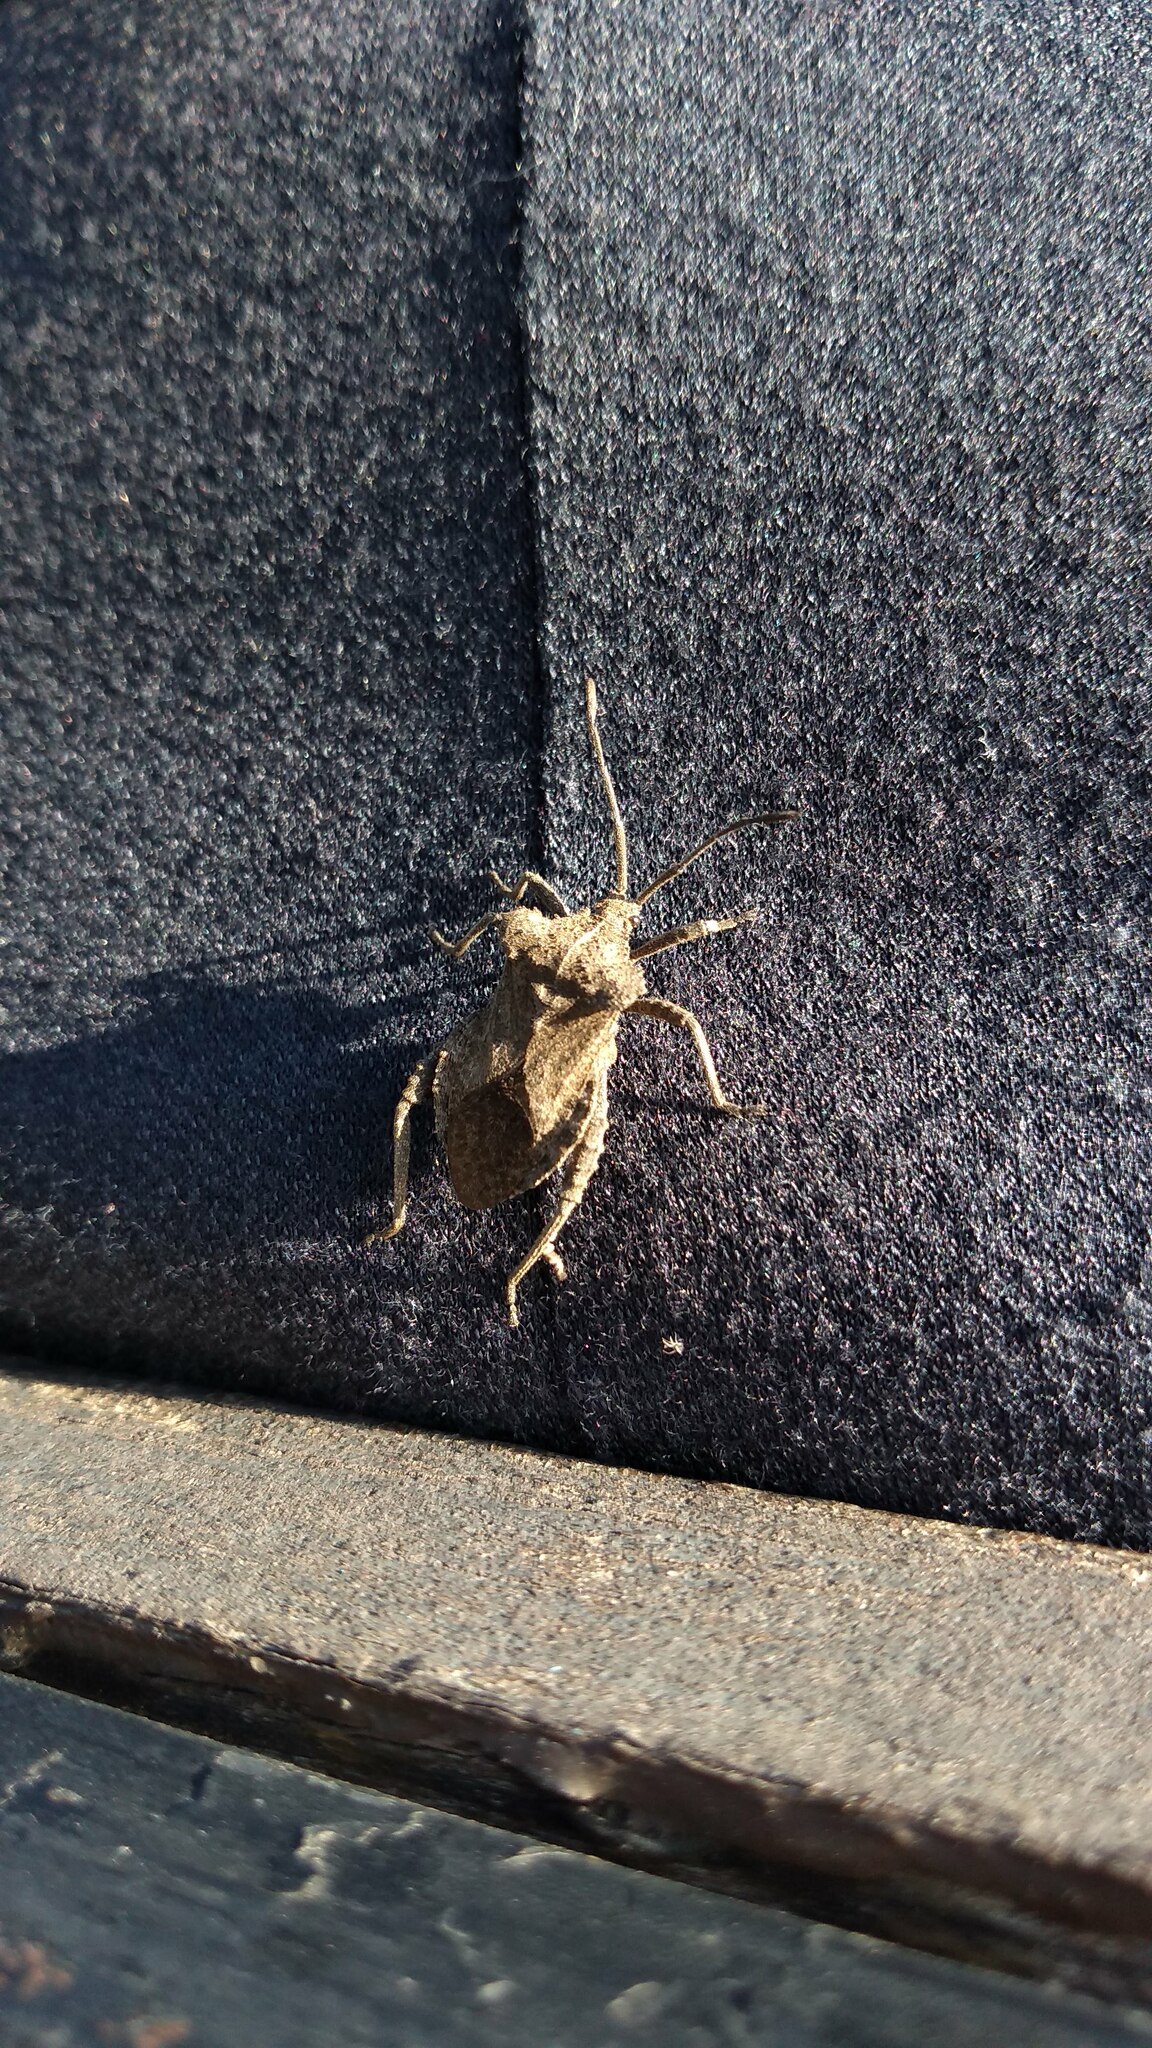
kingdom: Animalia
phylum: Arthropoda
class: Insecta
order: Hemiptera
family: Coreidae
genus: Camptischium
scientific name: Camptischium clavipes
